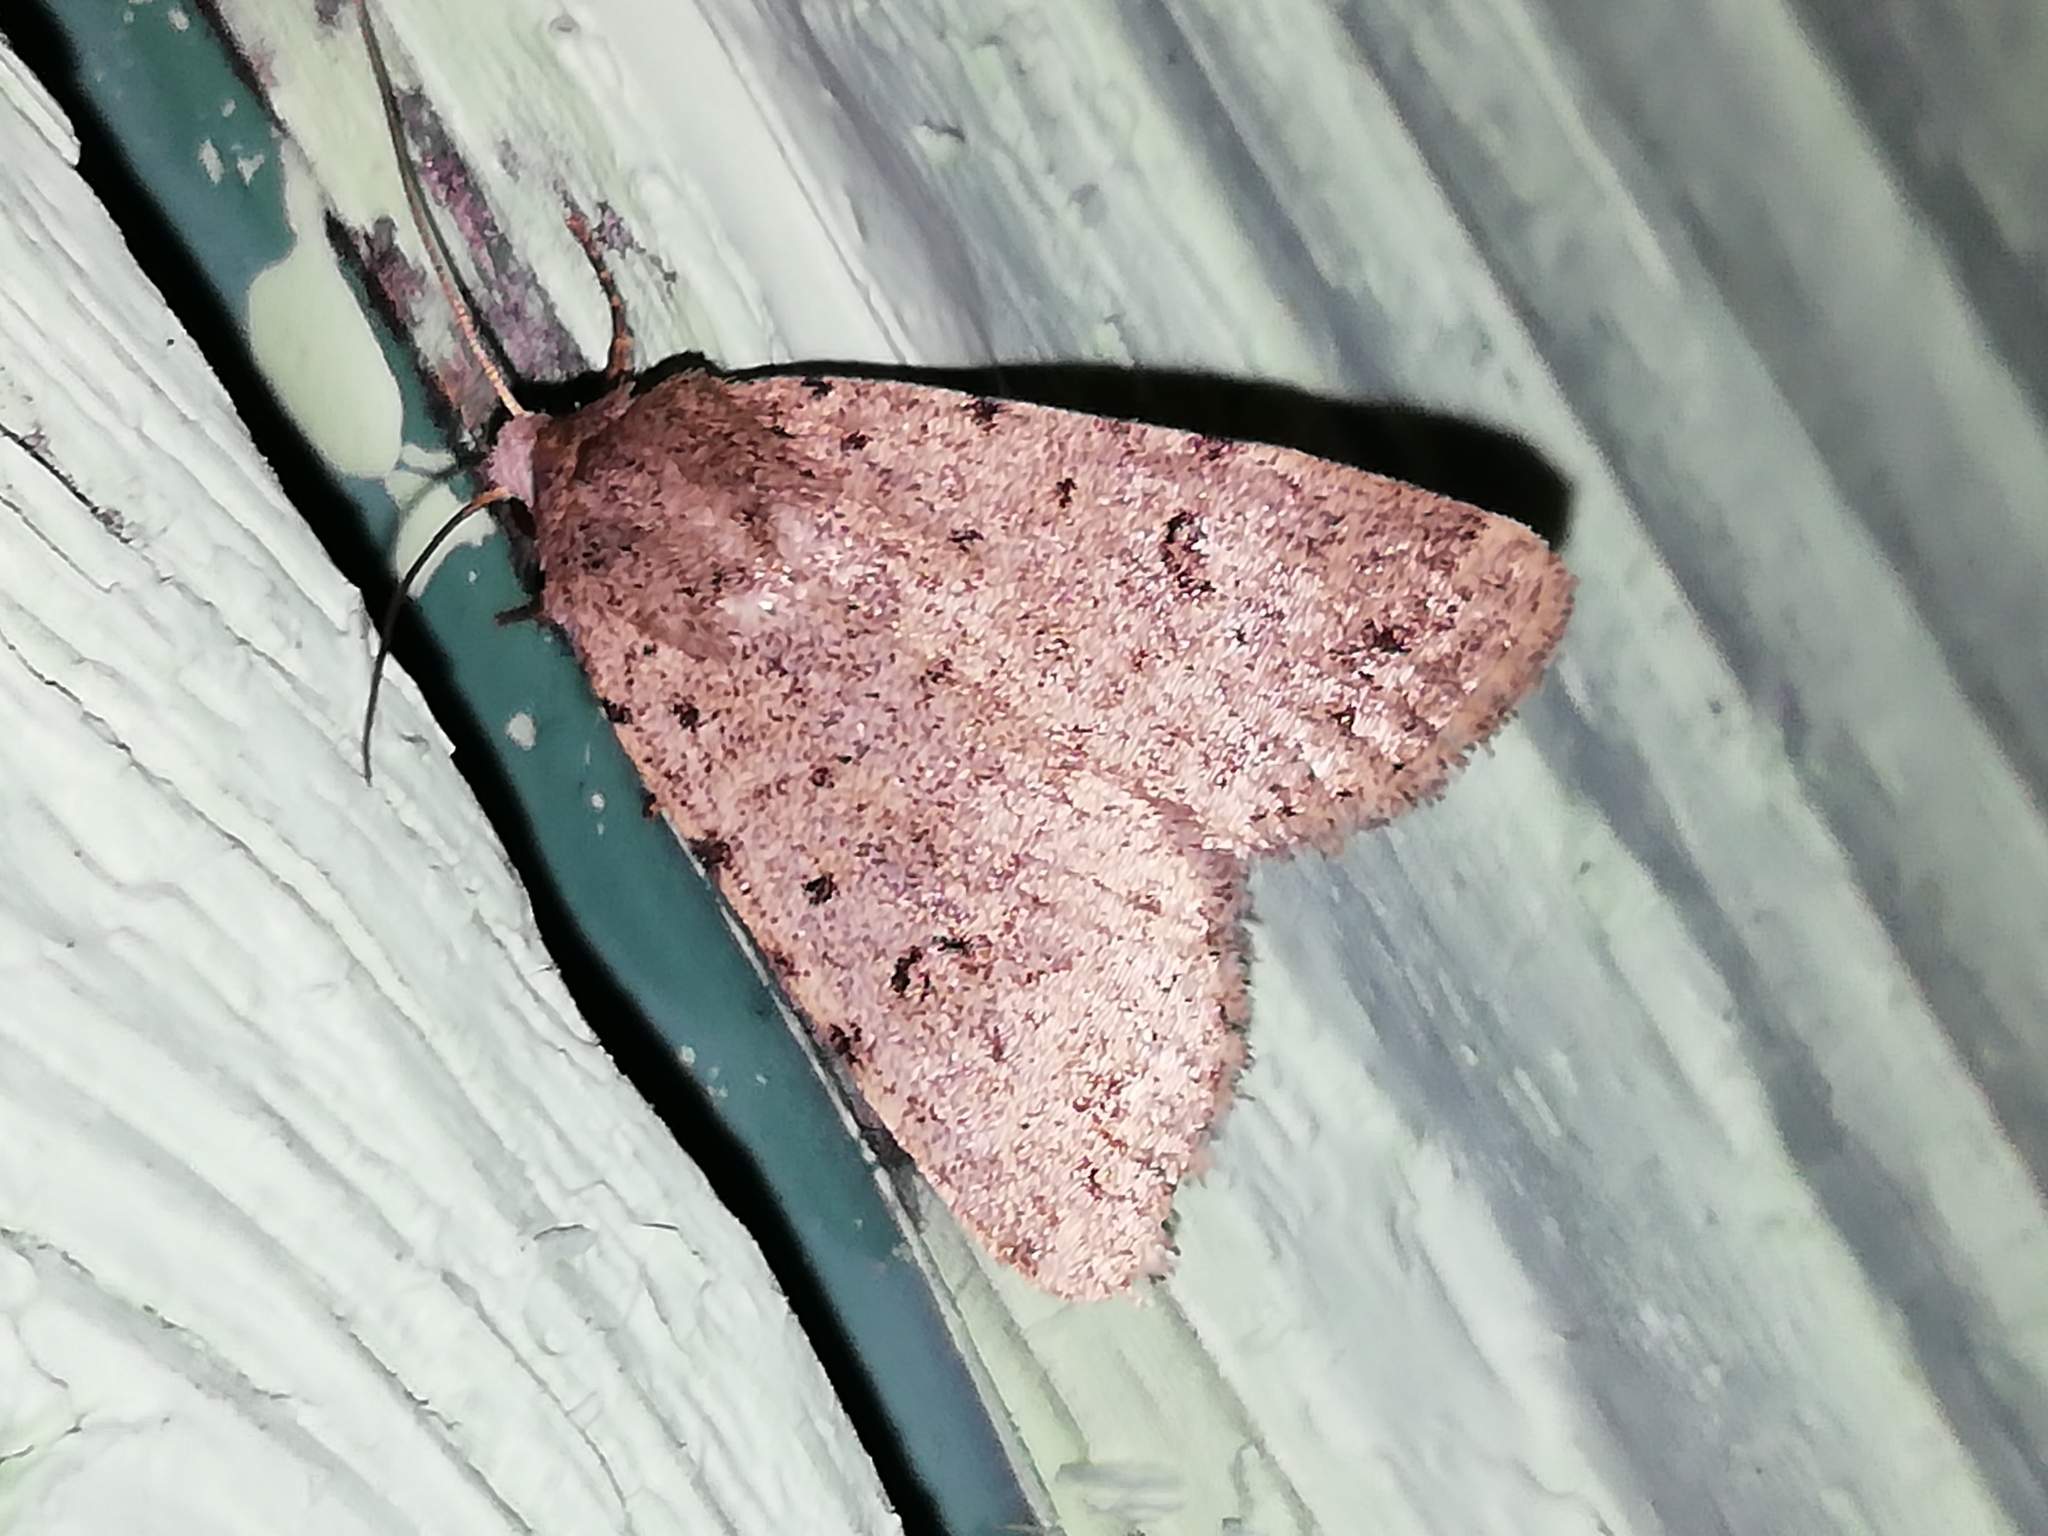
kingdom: Animalia
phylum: Arthropoda
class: Insecta
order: Lepidoptera
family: Noctuidae
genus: Caradrina
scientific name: Caradrina petraea
